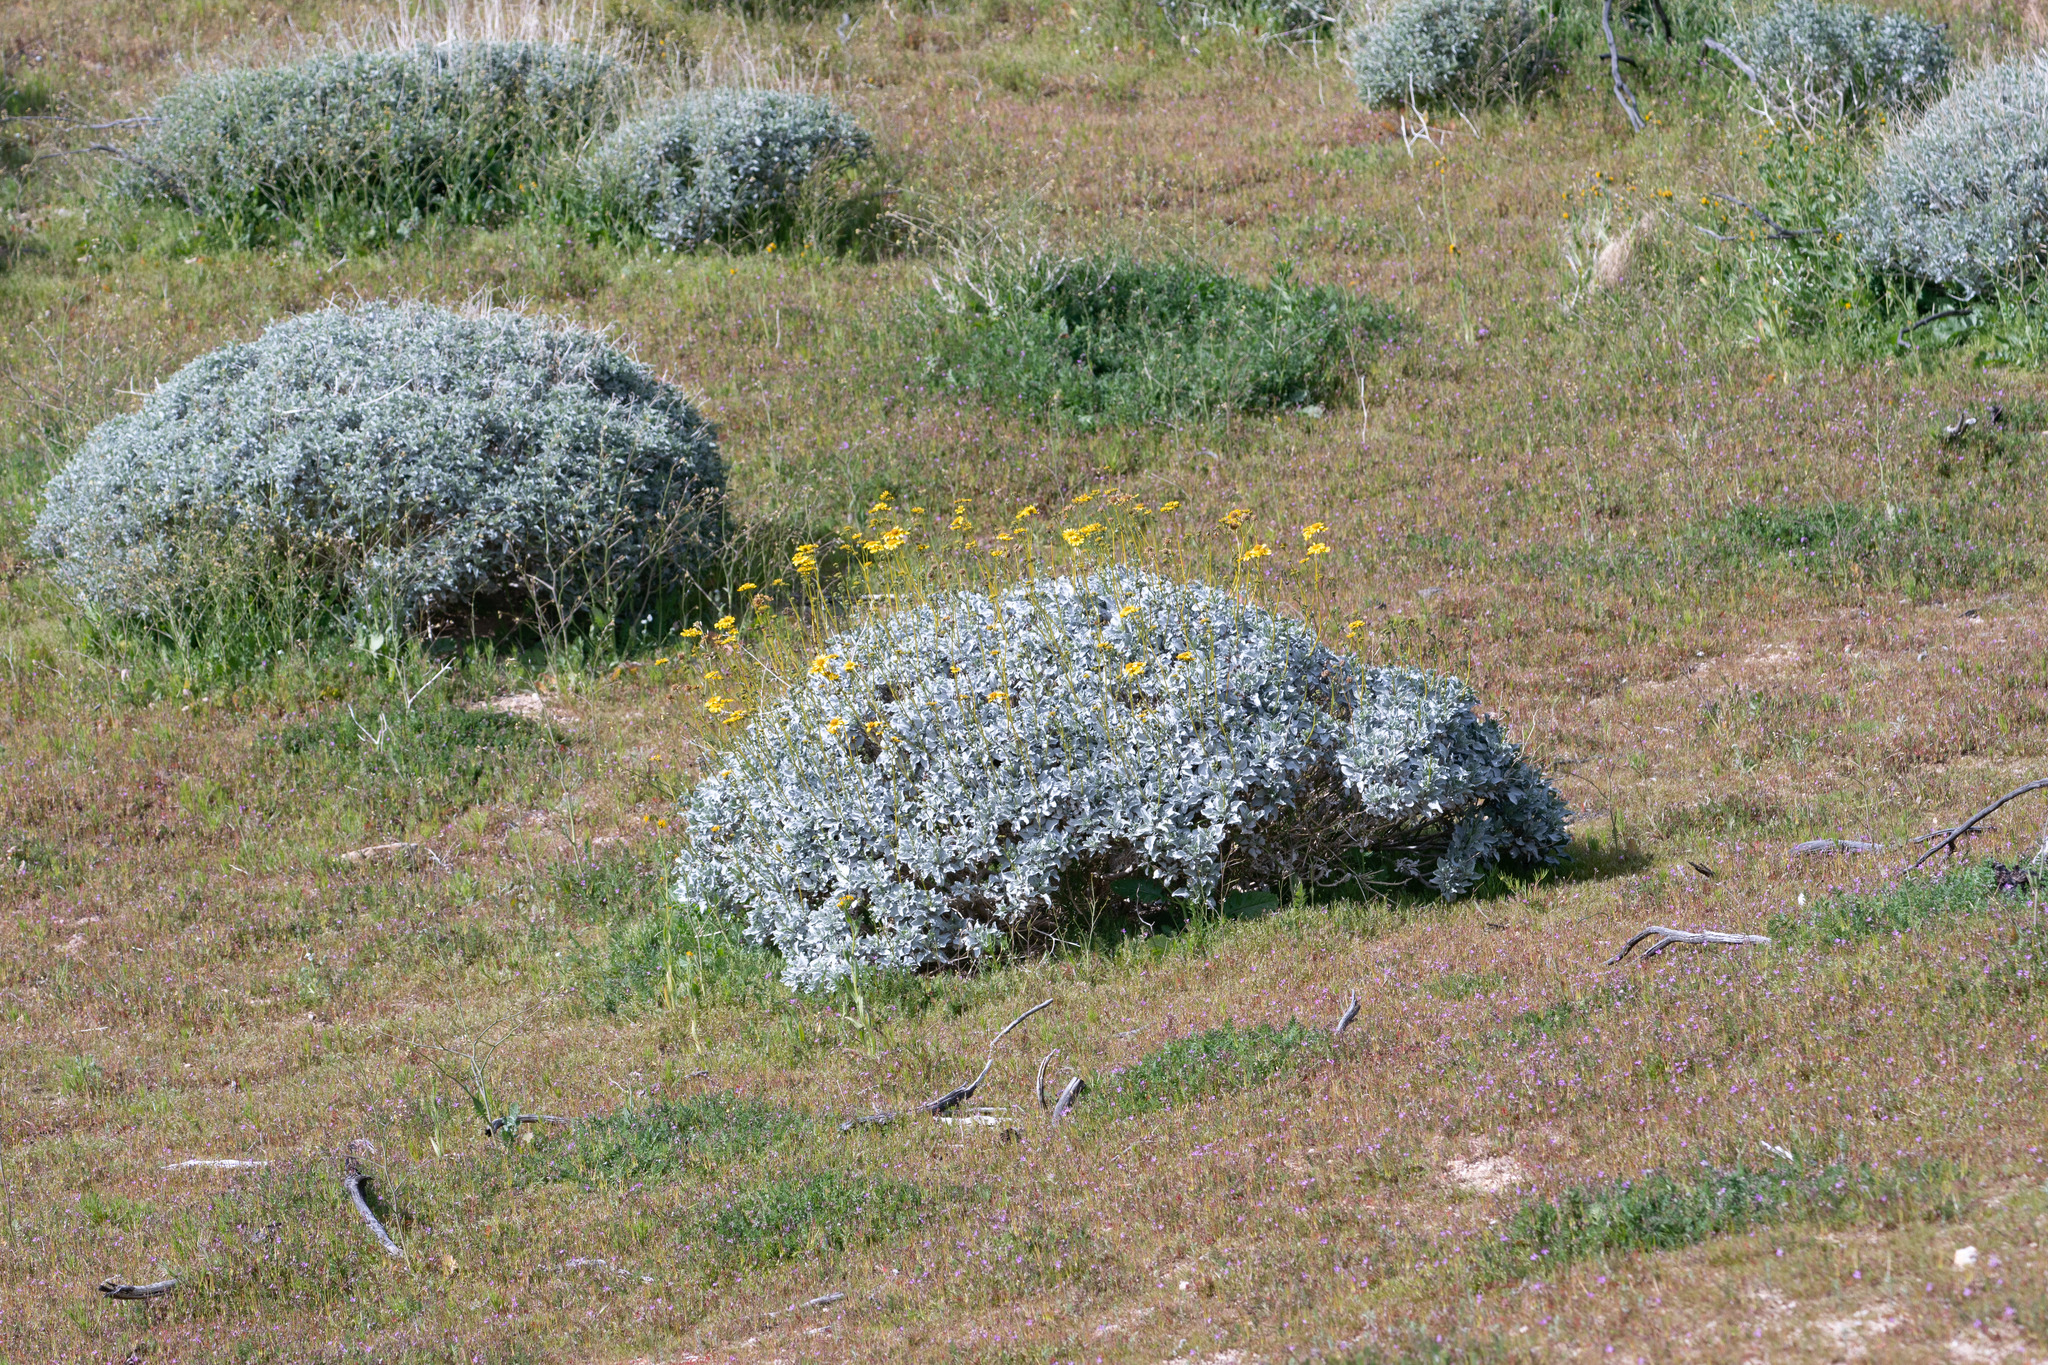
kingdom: Plantae
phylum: Tracheophyta
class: Magnoliopsida
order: Asterales
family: Asteraceae
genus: Encelia
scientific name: Encelia farinosa
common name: Brittlebush
